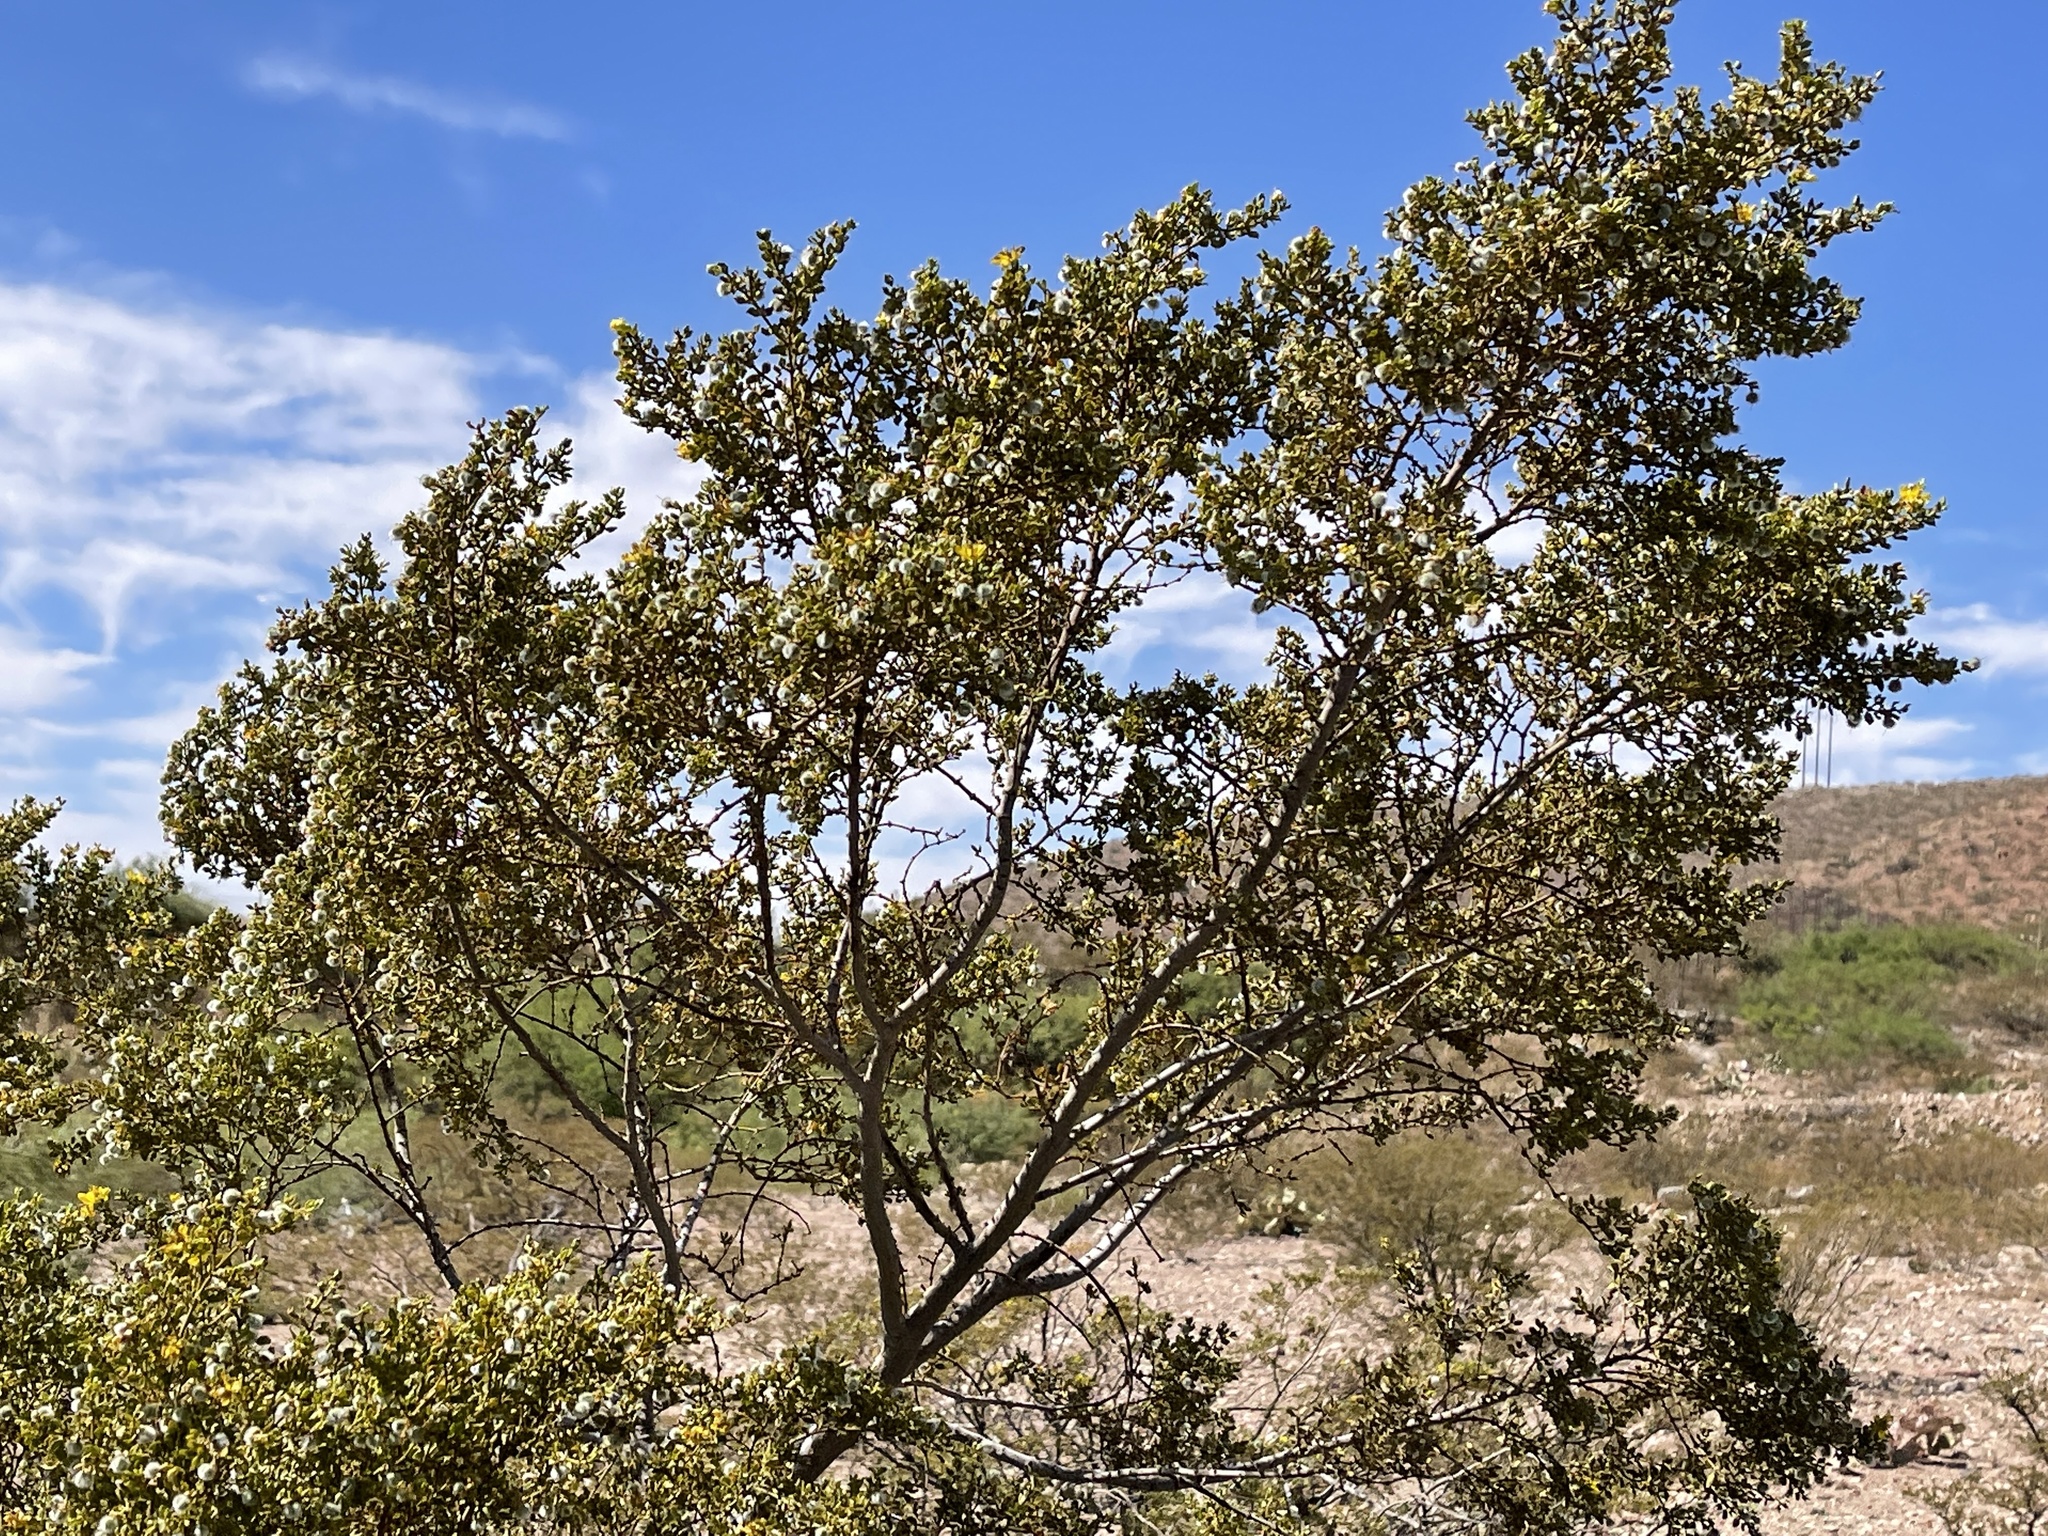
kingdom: Plantae
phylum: Tracheophyta
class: Magnoliopsida
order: Zygophyllales
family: Zygophyllaceae
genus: Larrea
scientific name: Larrea tridentata
